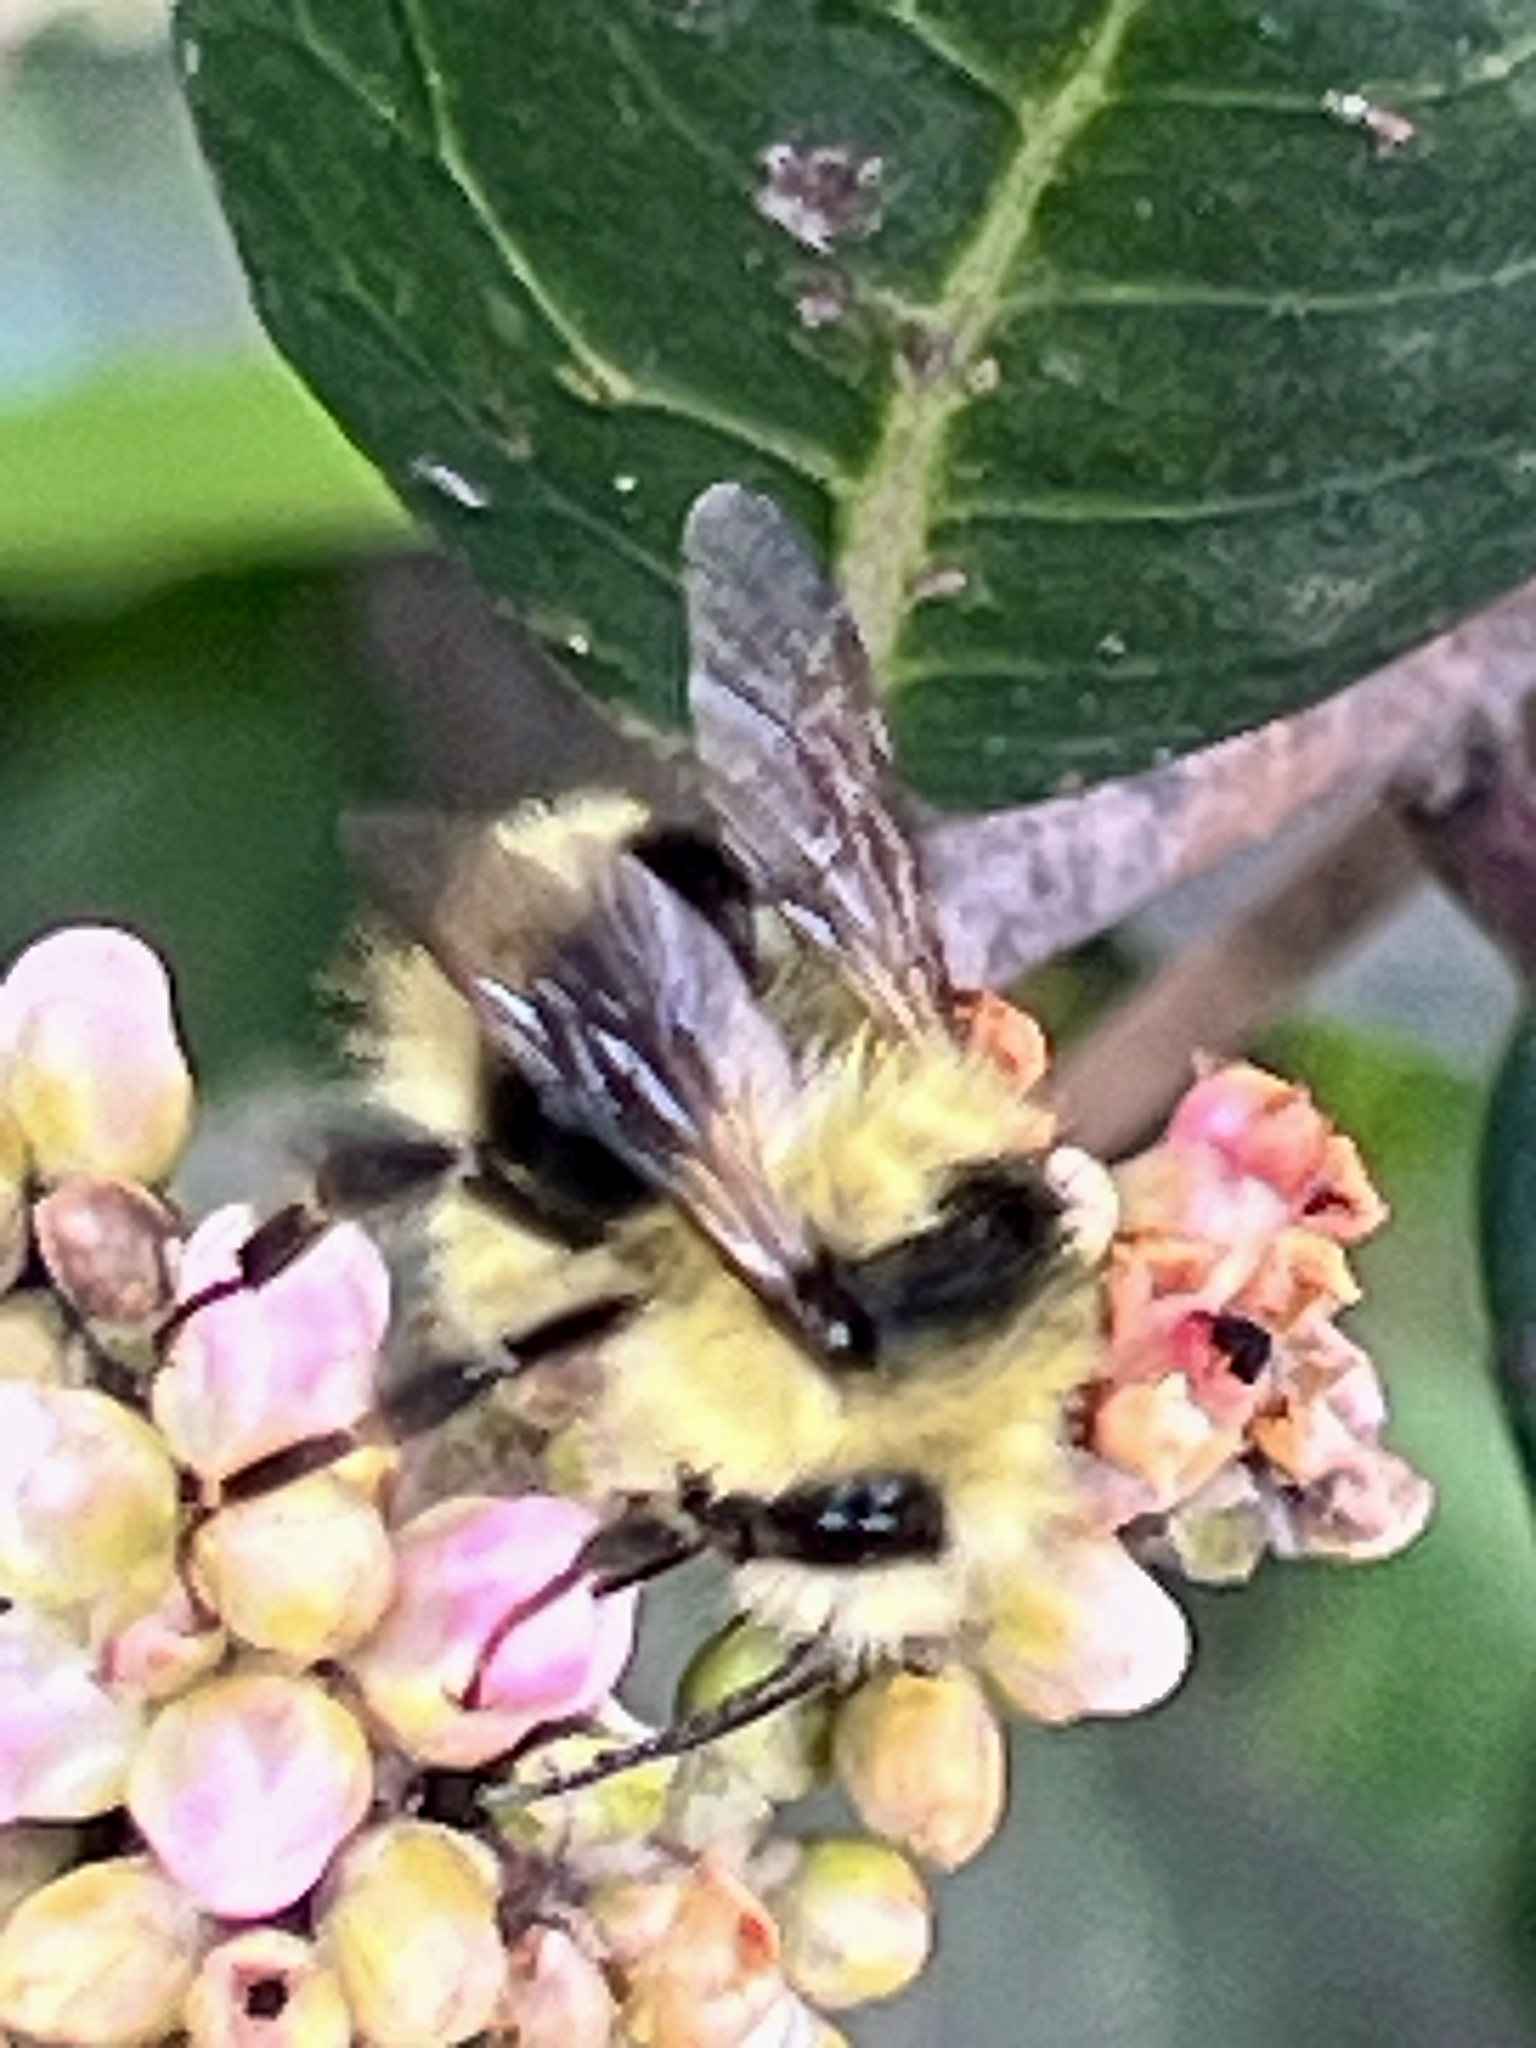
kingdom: Animalia
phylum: Arthropoda
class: Insecta
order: Hymenoptera
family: Apidae
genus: Bombus
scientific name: Bombus melanopygus
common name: Black tail bumble bee
